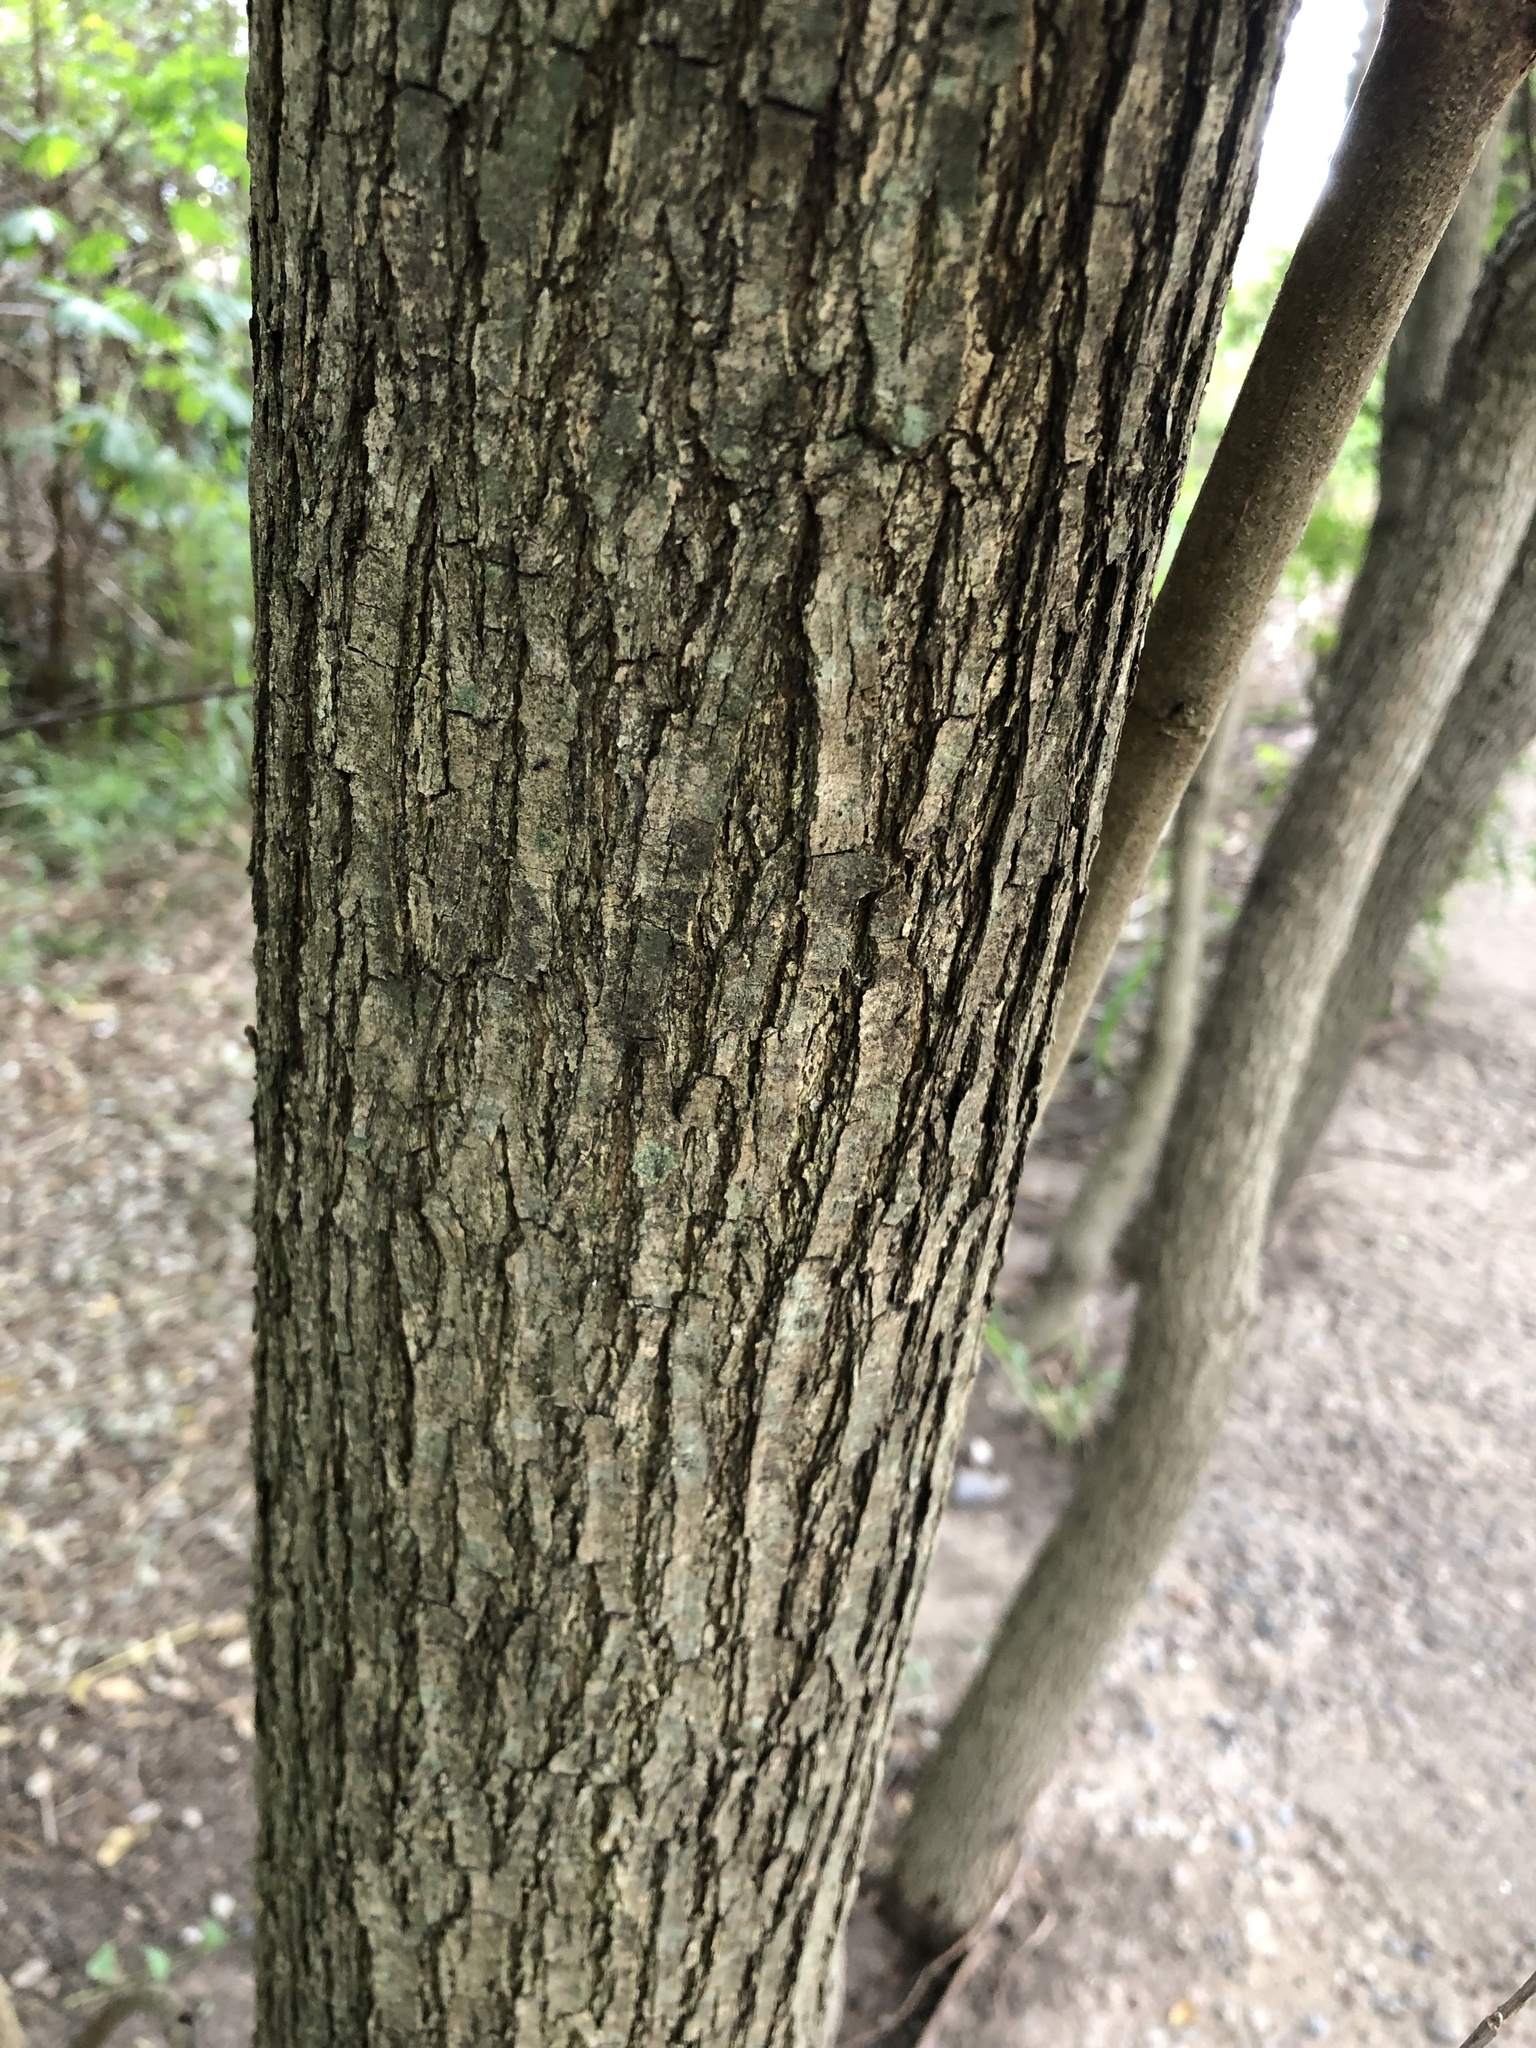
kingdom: Plantae
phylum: Tracheophyta
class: Magnoliopsida
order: Fabales
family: Fabaceae
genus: Tipuana
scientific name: Tipuana tipu
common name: Tiputree
